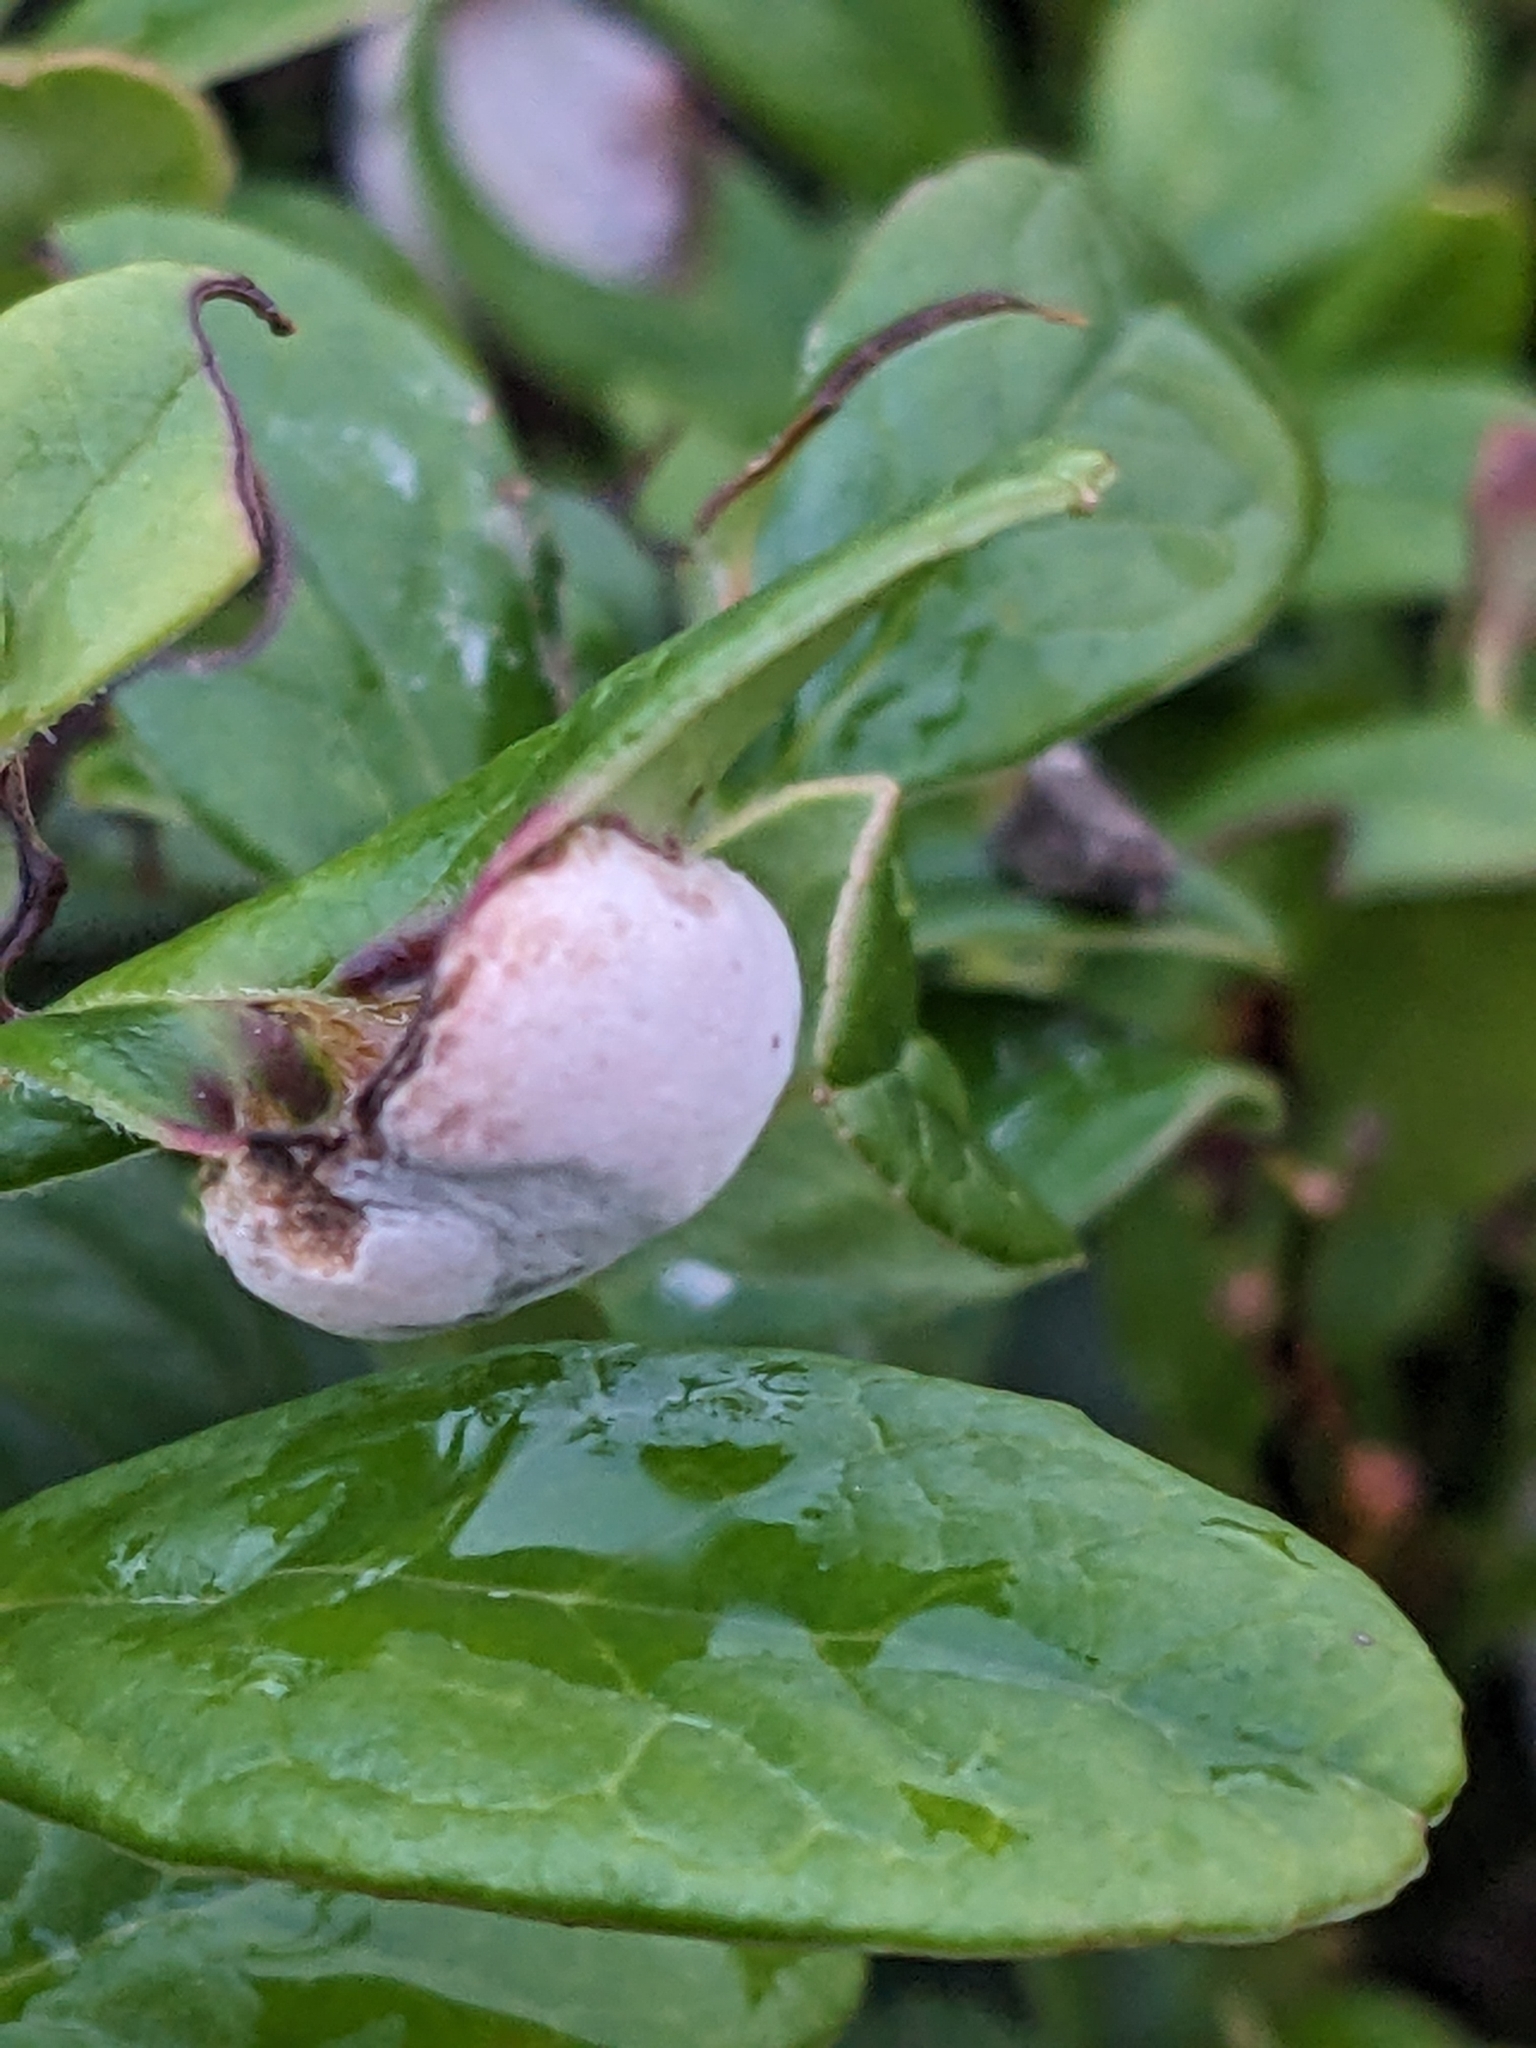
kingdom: Fungi
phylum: Basidiomycota
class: Exobasidiomycetes
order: Exobasidiales
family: Exobasidiaceae
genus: Exobasidium
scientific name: Exobasidium vaccinii
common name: Cowberry redleaf
